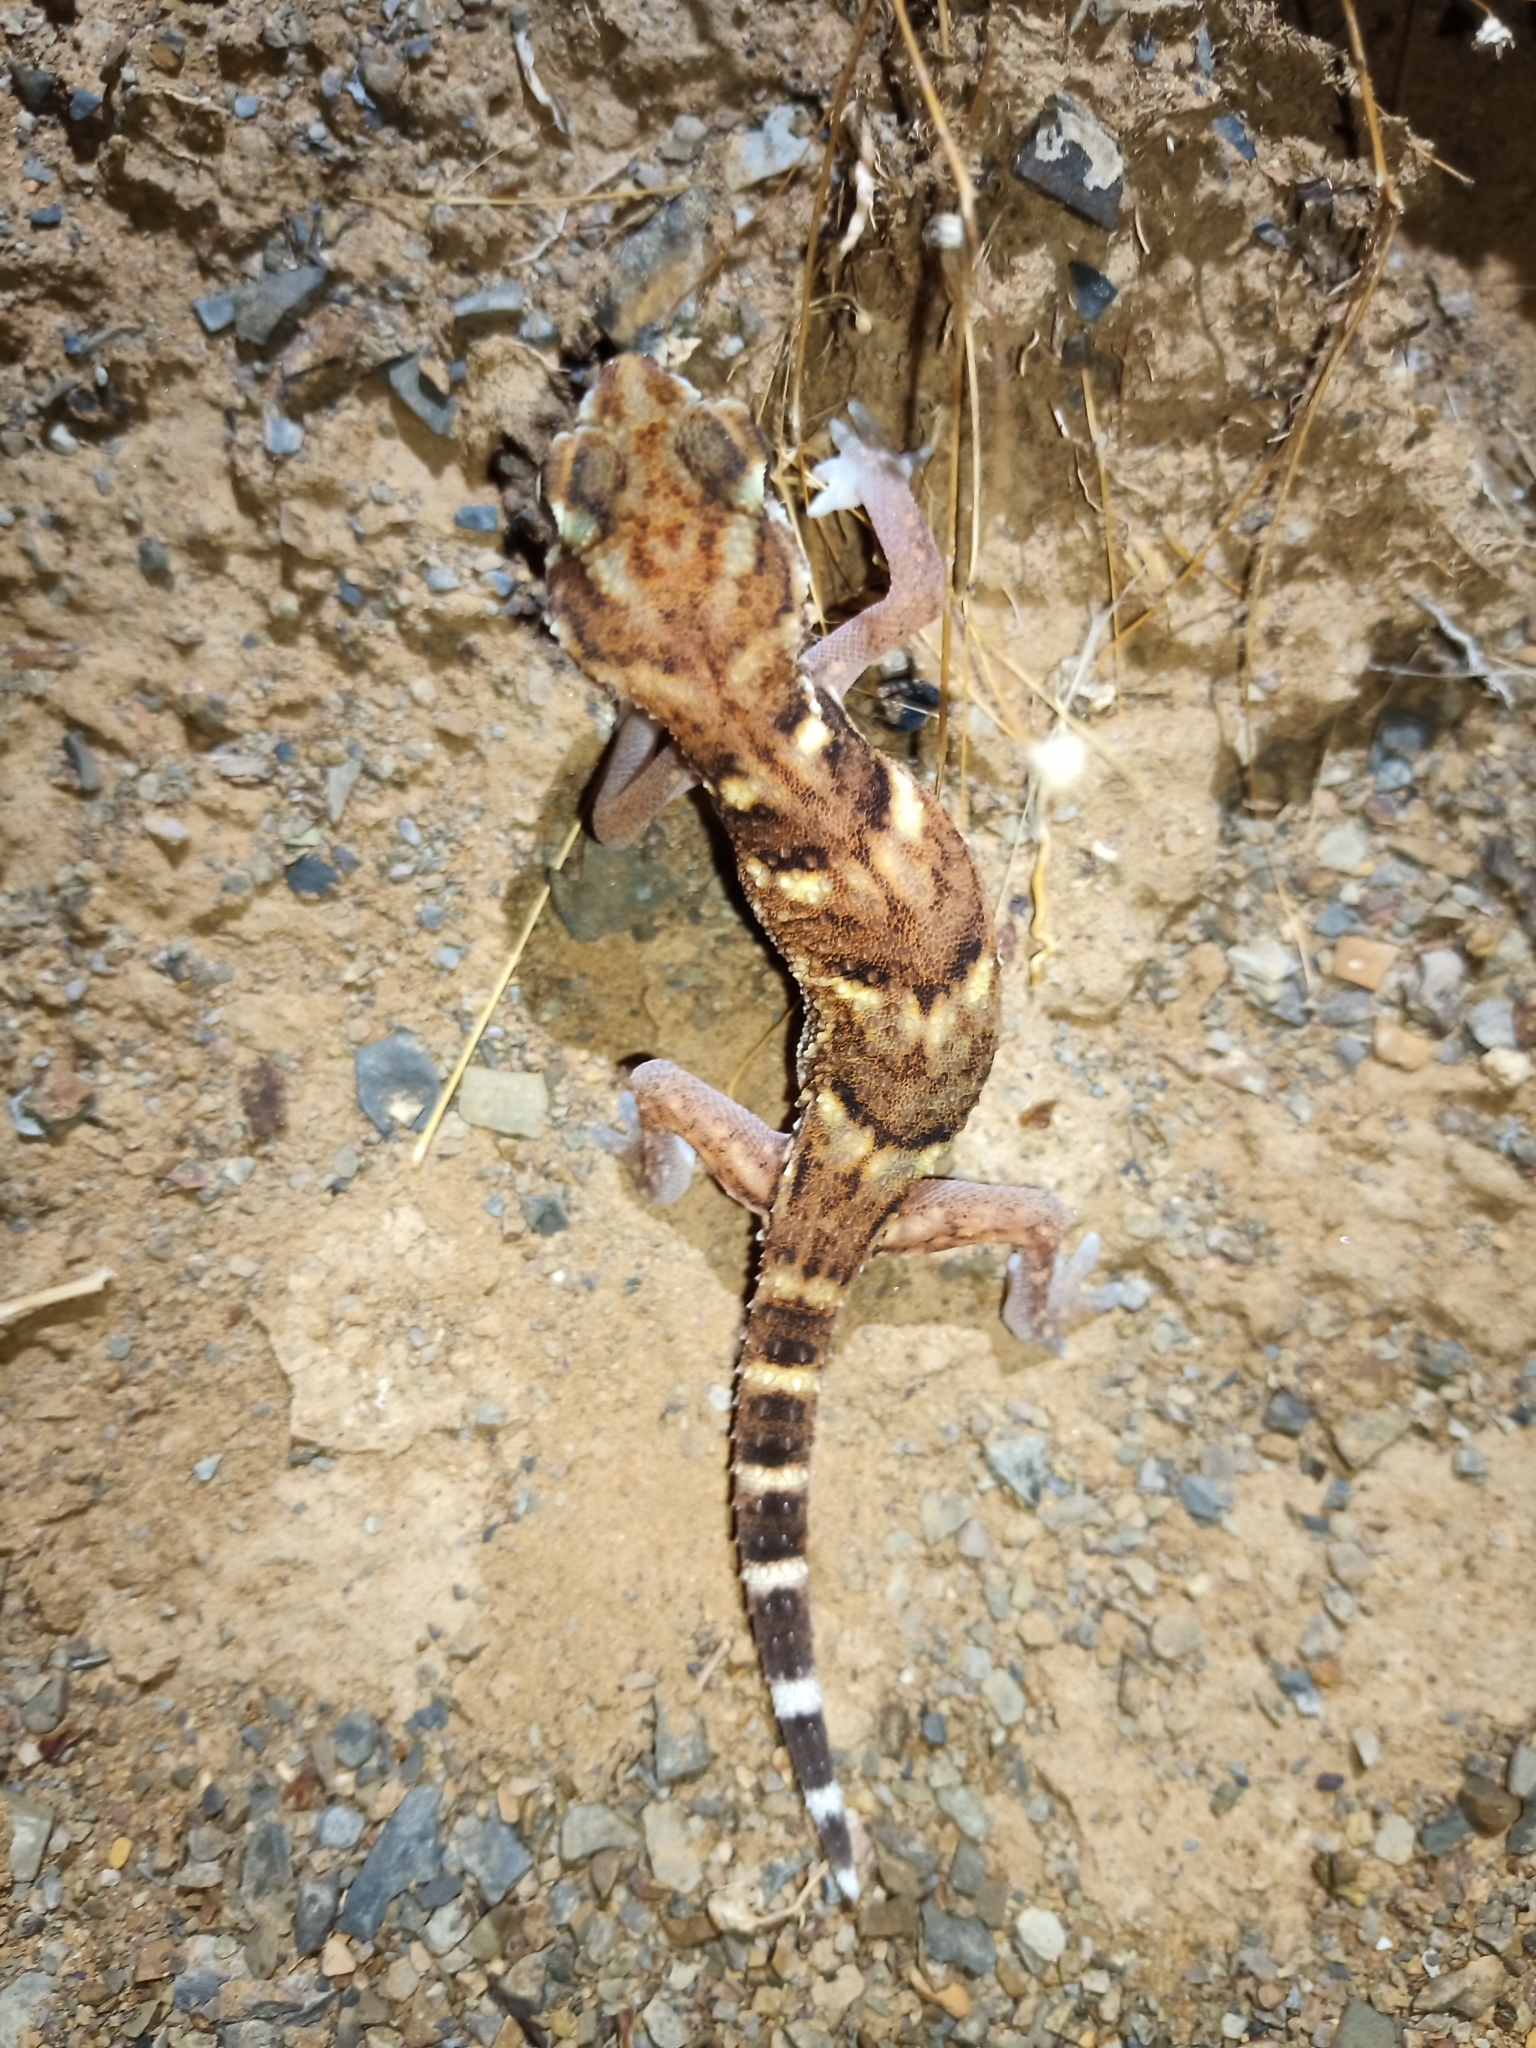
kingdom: Animalia
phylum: Chordata
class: Squamata
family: Gekkonidae
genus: Chondrodactylus
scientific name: Chondrodactylus angulifer
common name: Common giant ground gecko
